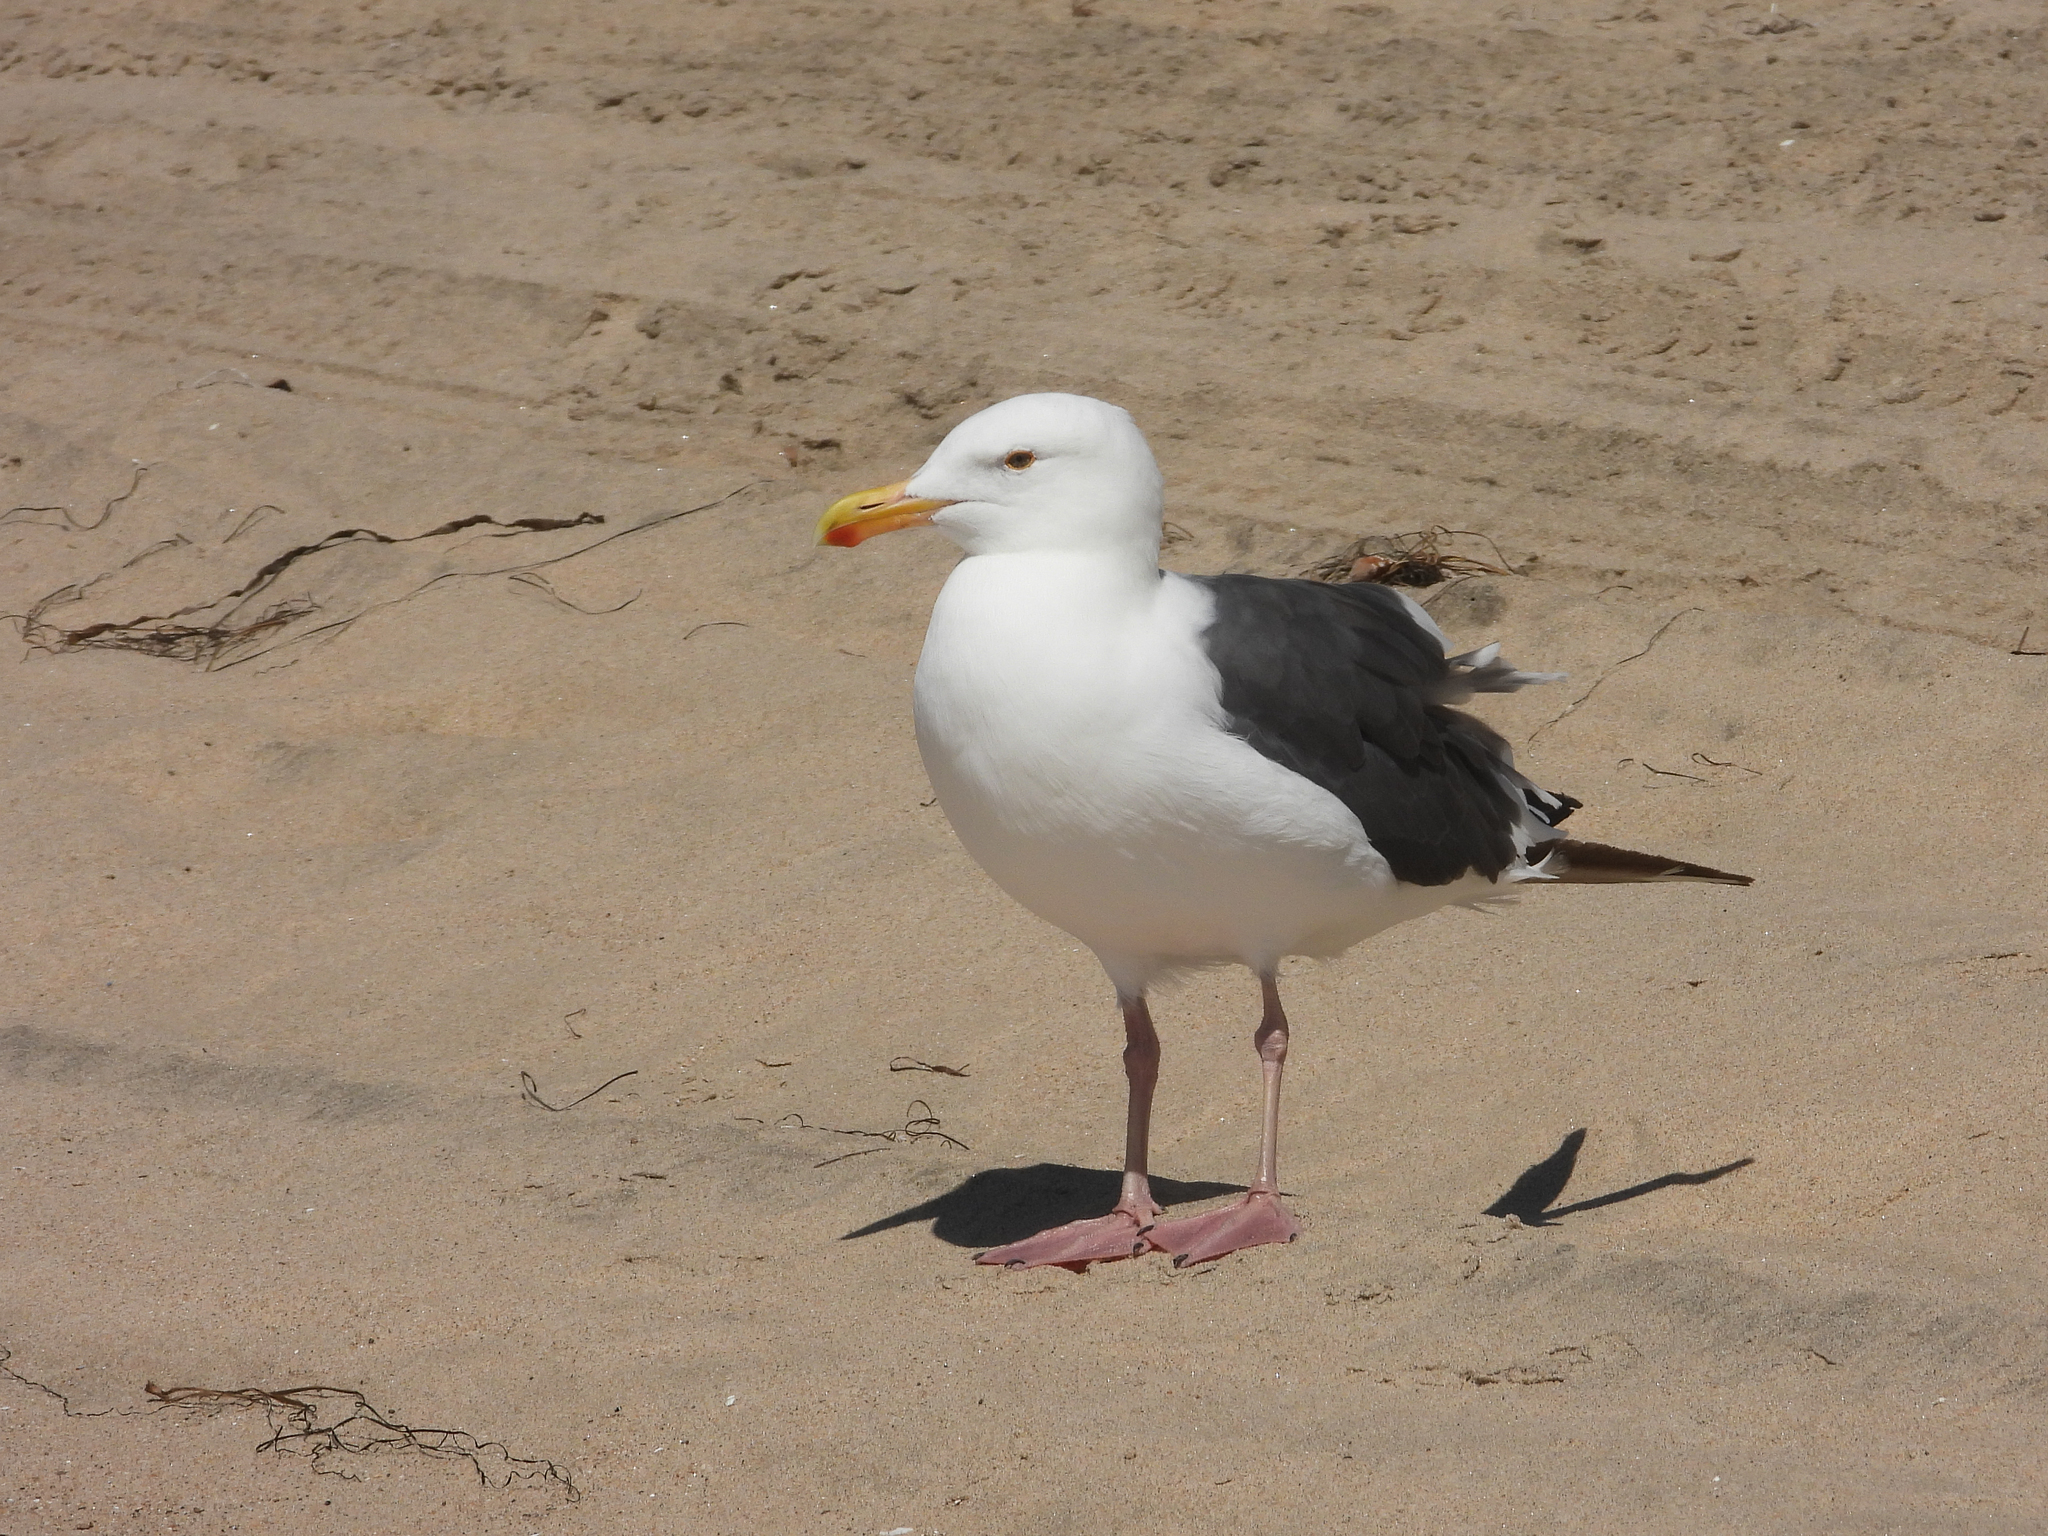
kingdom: Animalia
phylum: Chordata
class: Aves
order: Charadriiformes
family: Laridae
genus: Larus
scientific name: Larus occidentalis
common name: Western gull
